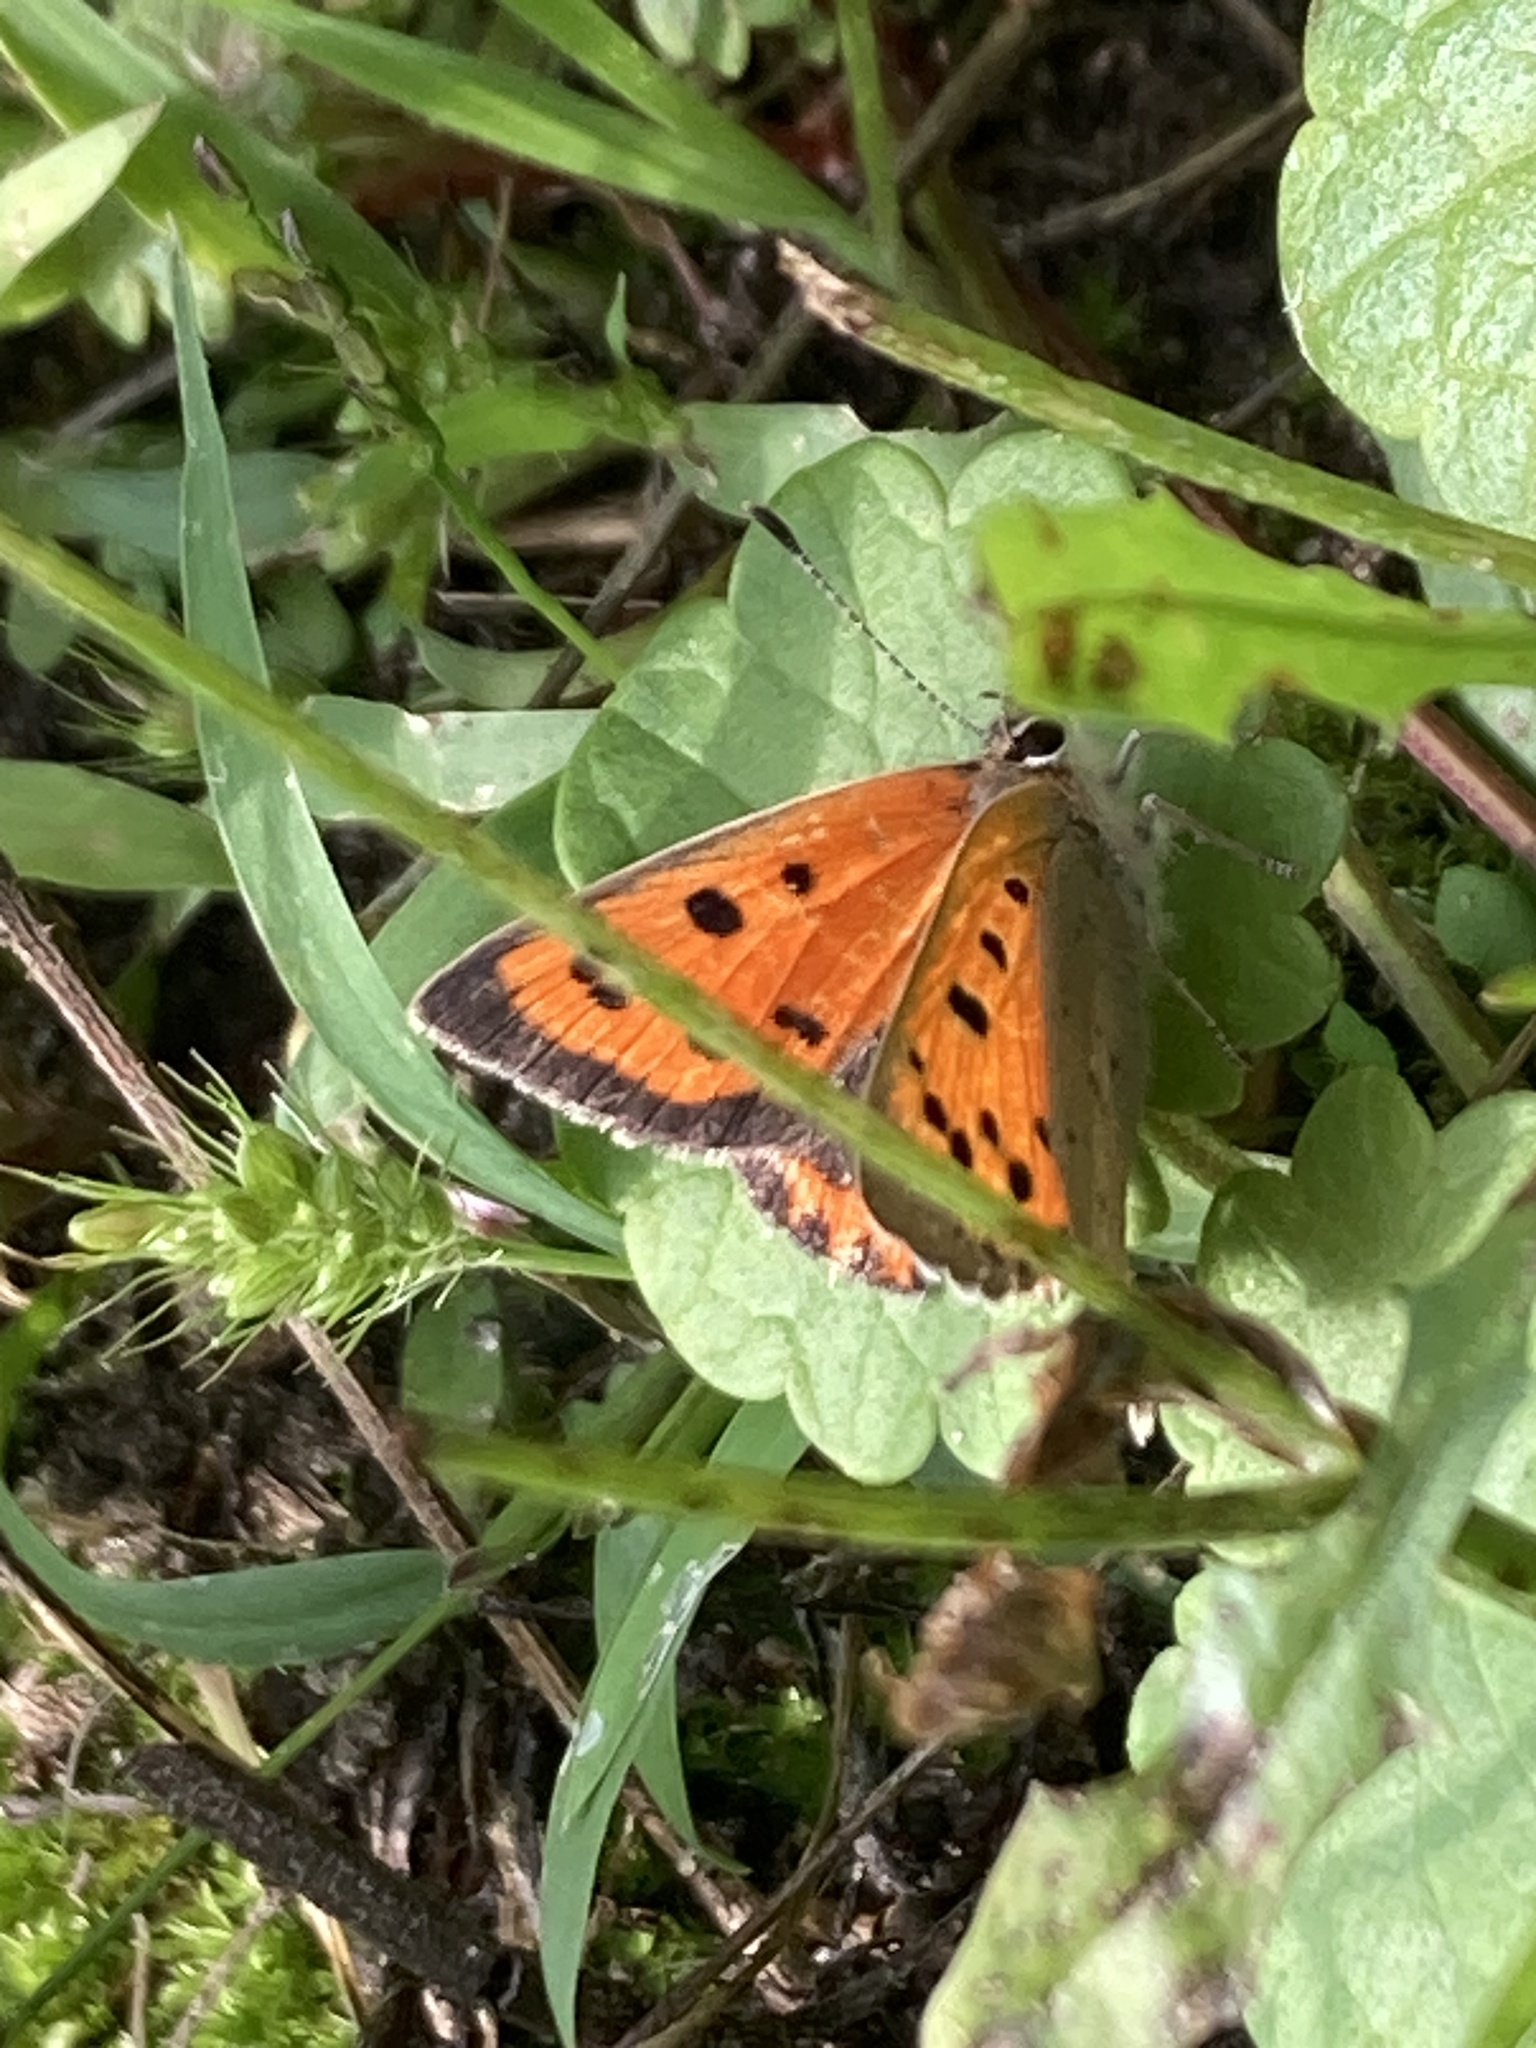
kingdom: Animalia
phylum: Arthropoda
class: Insecta
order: Lepidoptera
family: Lycaenidae
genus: Lycaena
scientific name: Lycaena phlaeas
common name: Small copper
